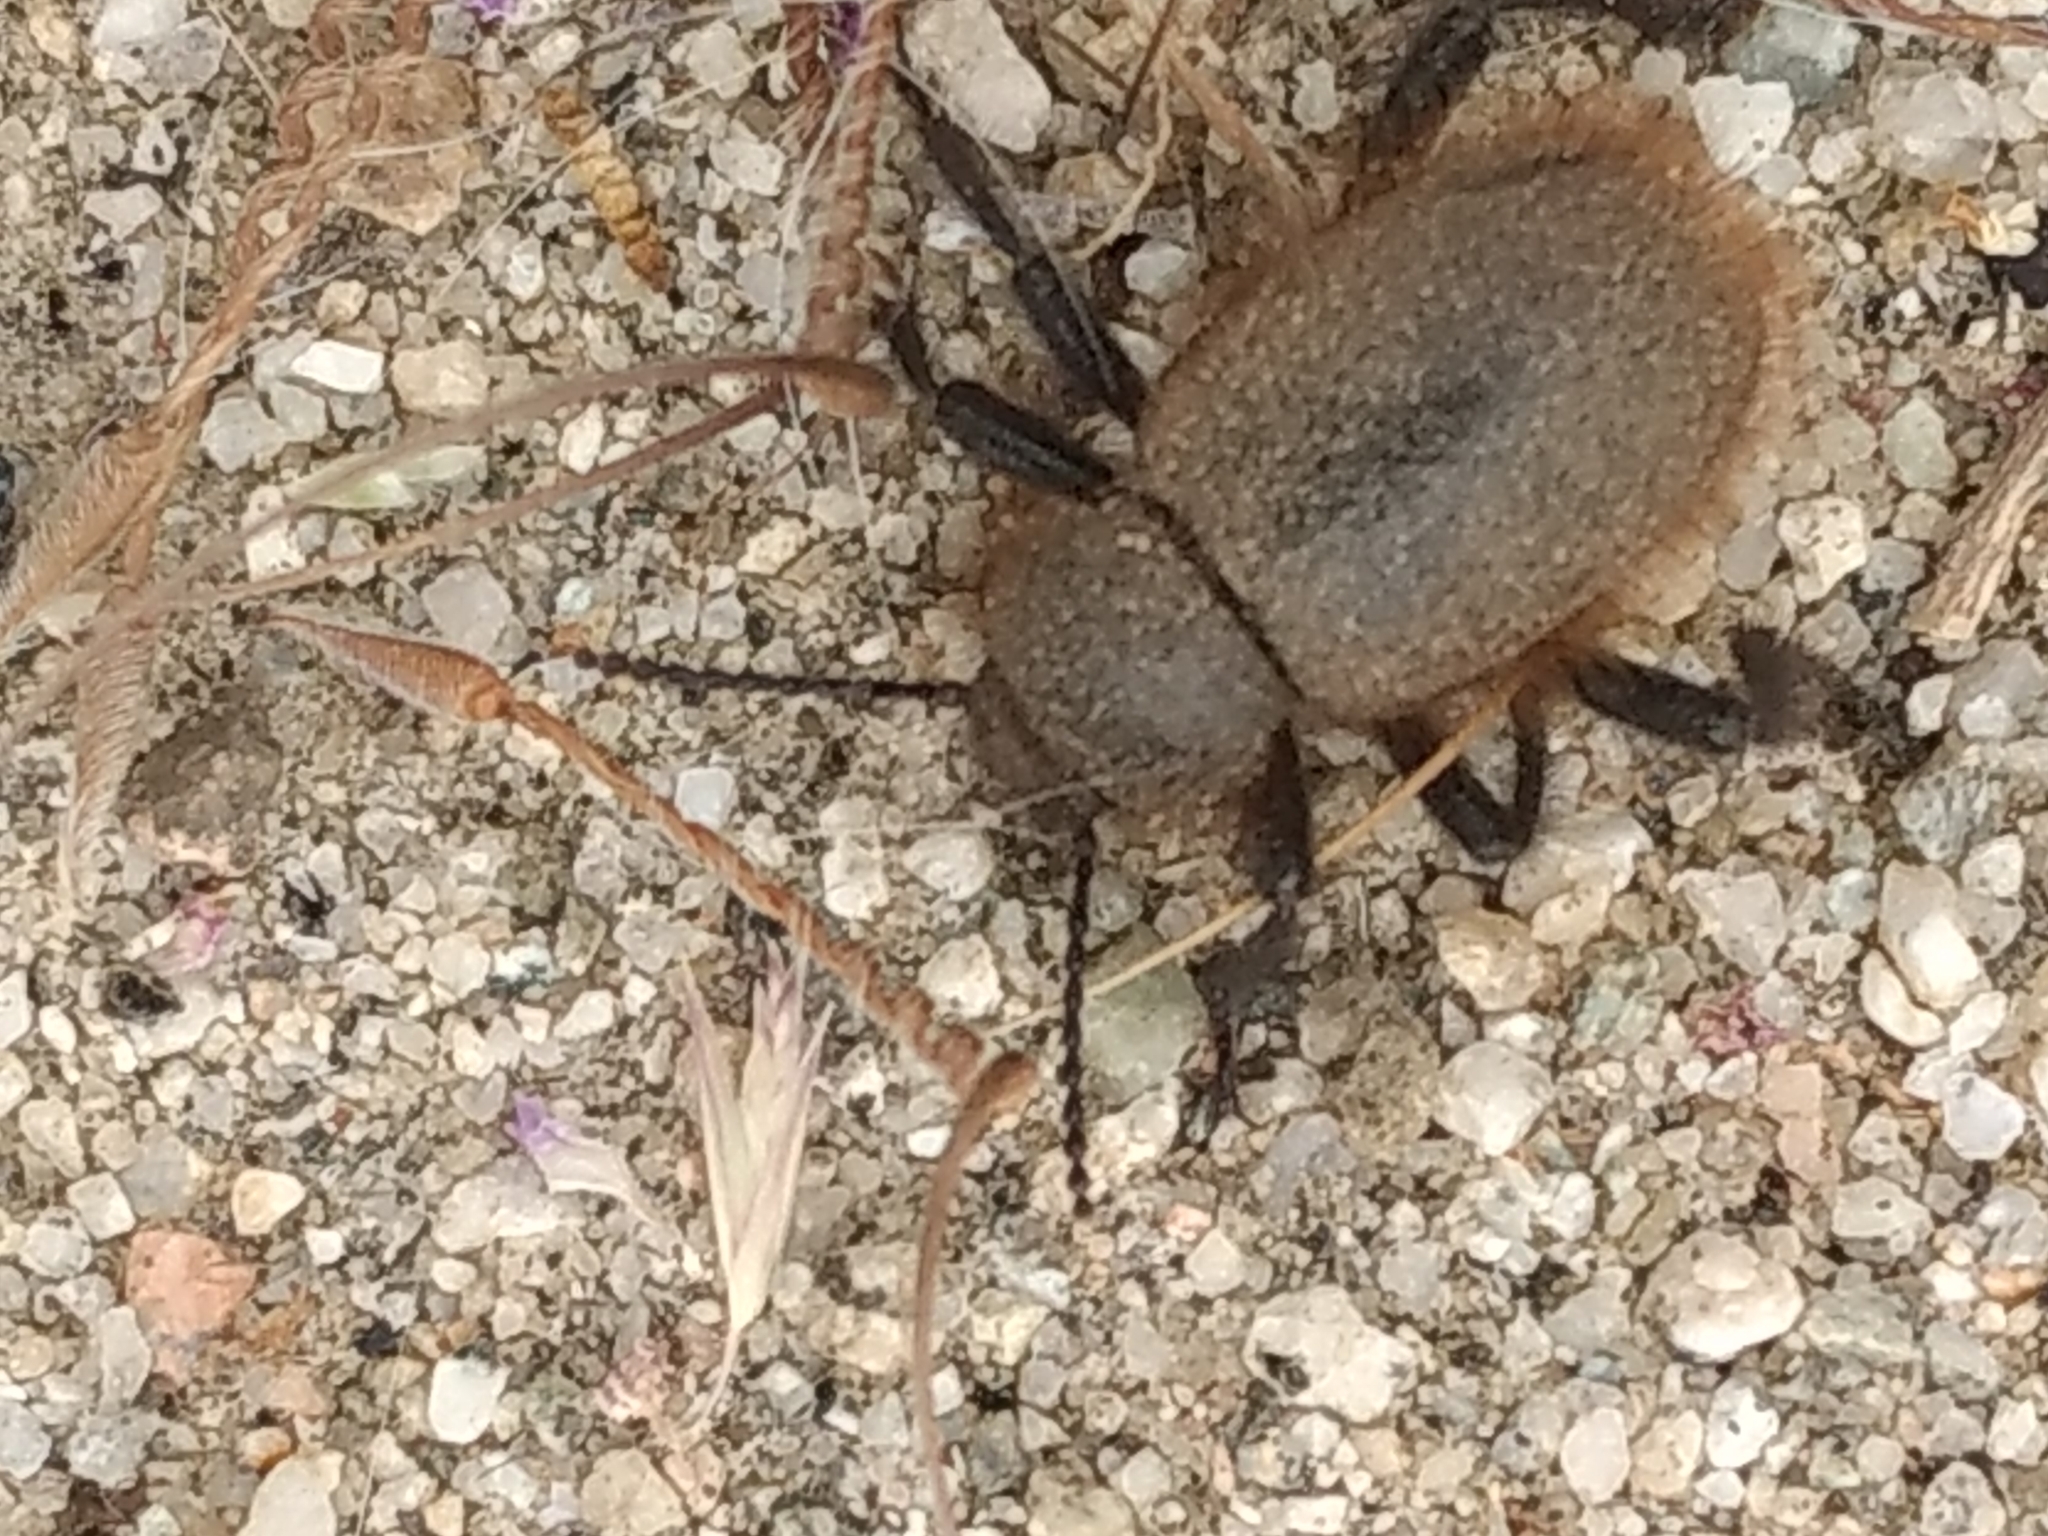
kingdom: Animalia
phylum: Arthropoda
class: Insecta
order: Coleoptera
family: Tenebrionidae
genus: Eleodes
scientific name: Eleodes osculans
